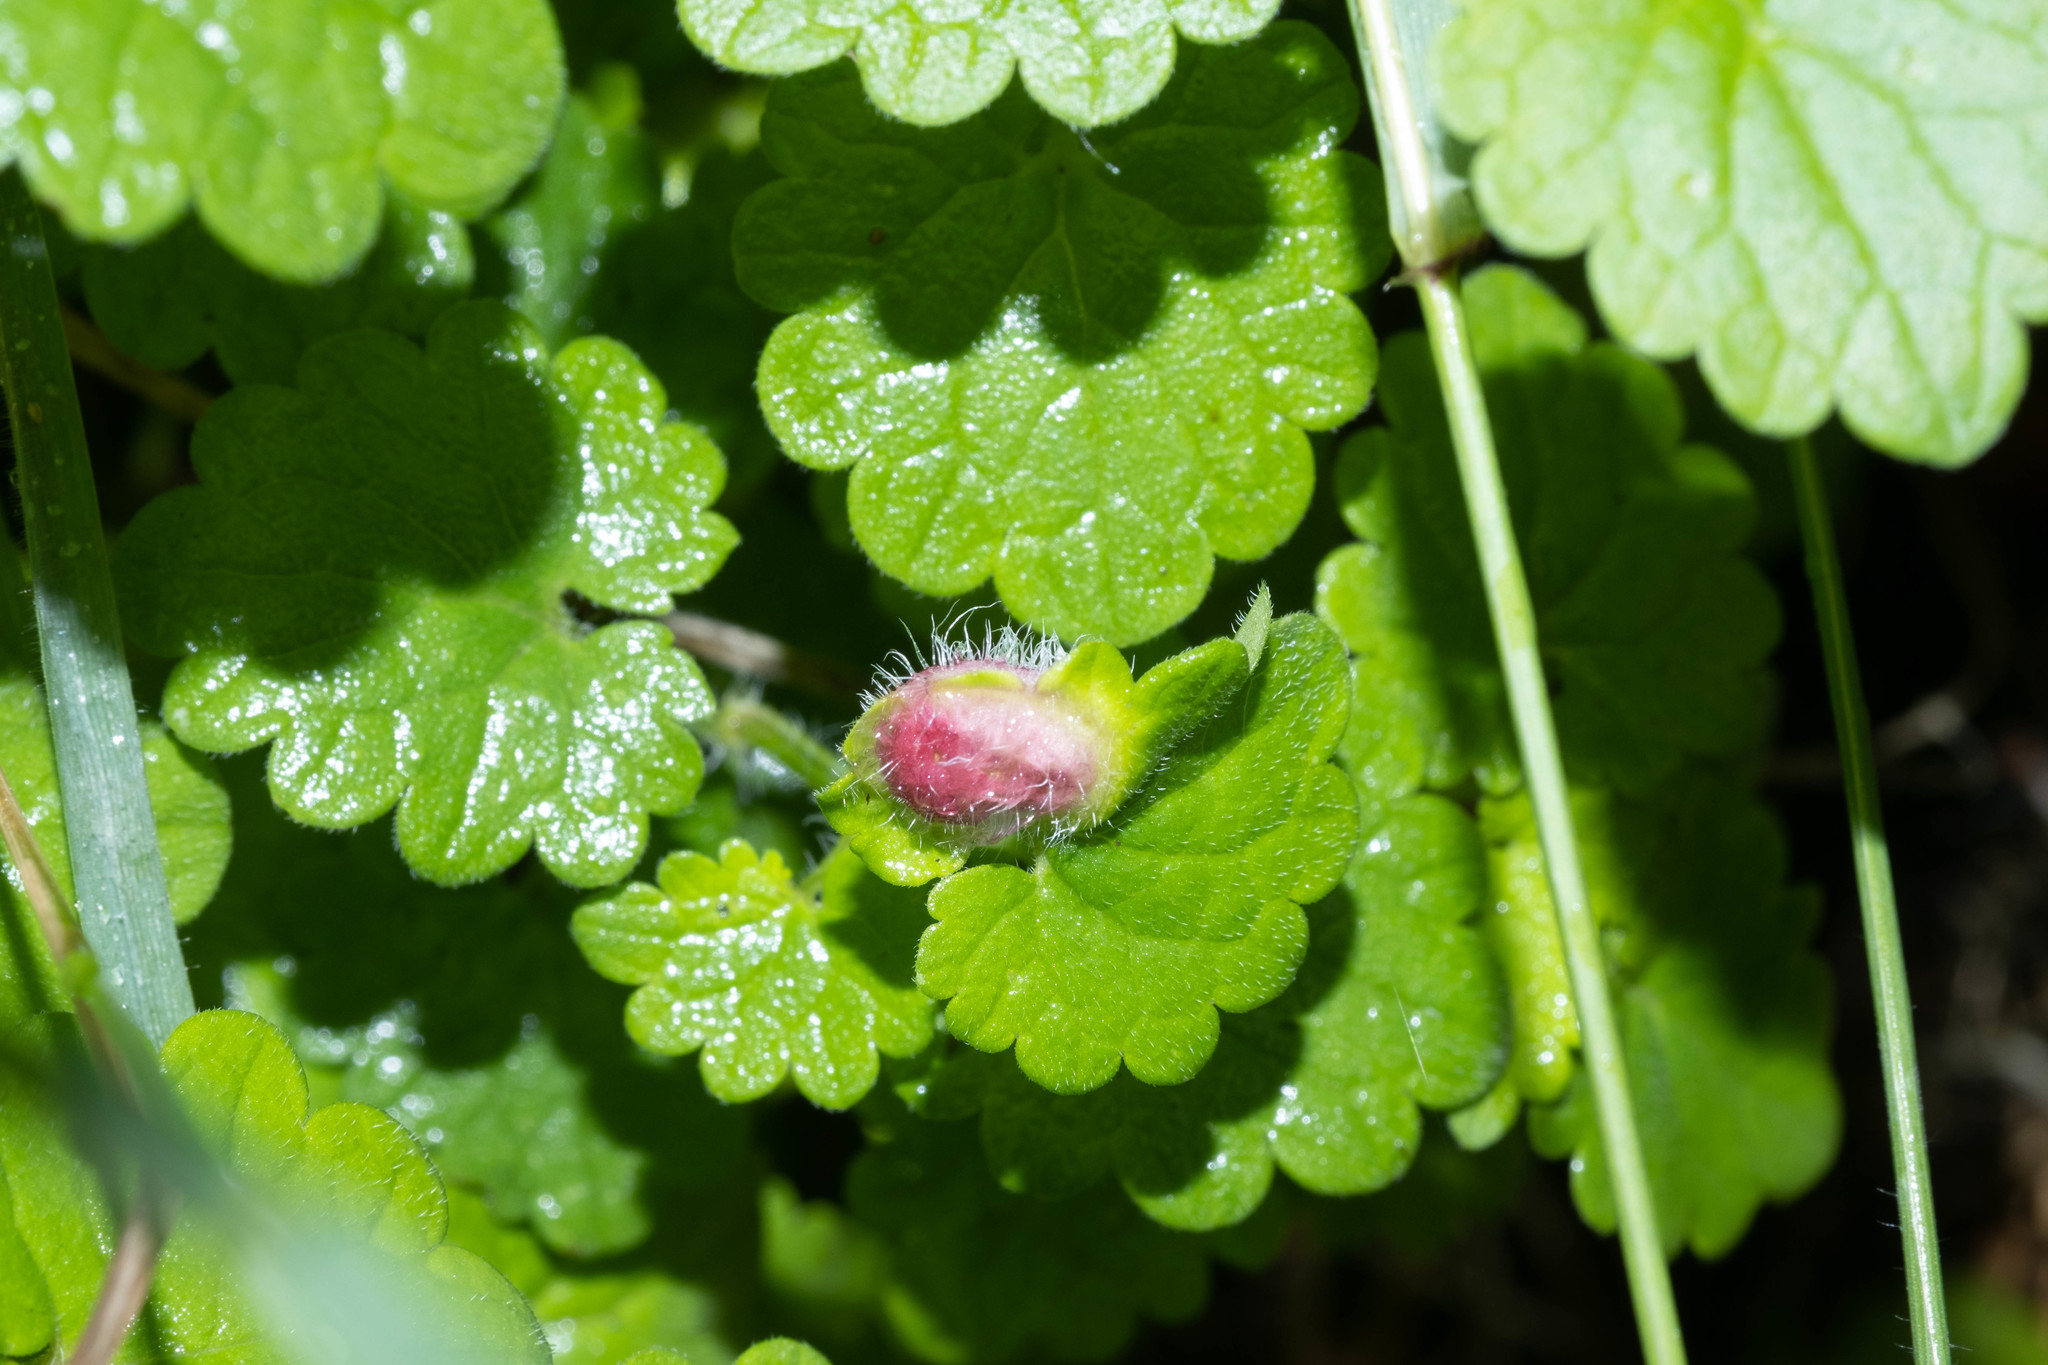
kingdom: Animalia
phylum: Arthropoda
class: Insecta
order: Hymenoptera
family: Cynipidae
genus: Liposthenes
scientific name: Liposthenes glechomae
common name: Gall wasp
